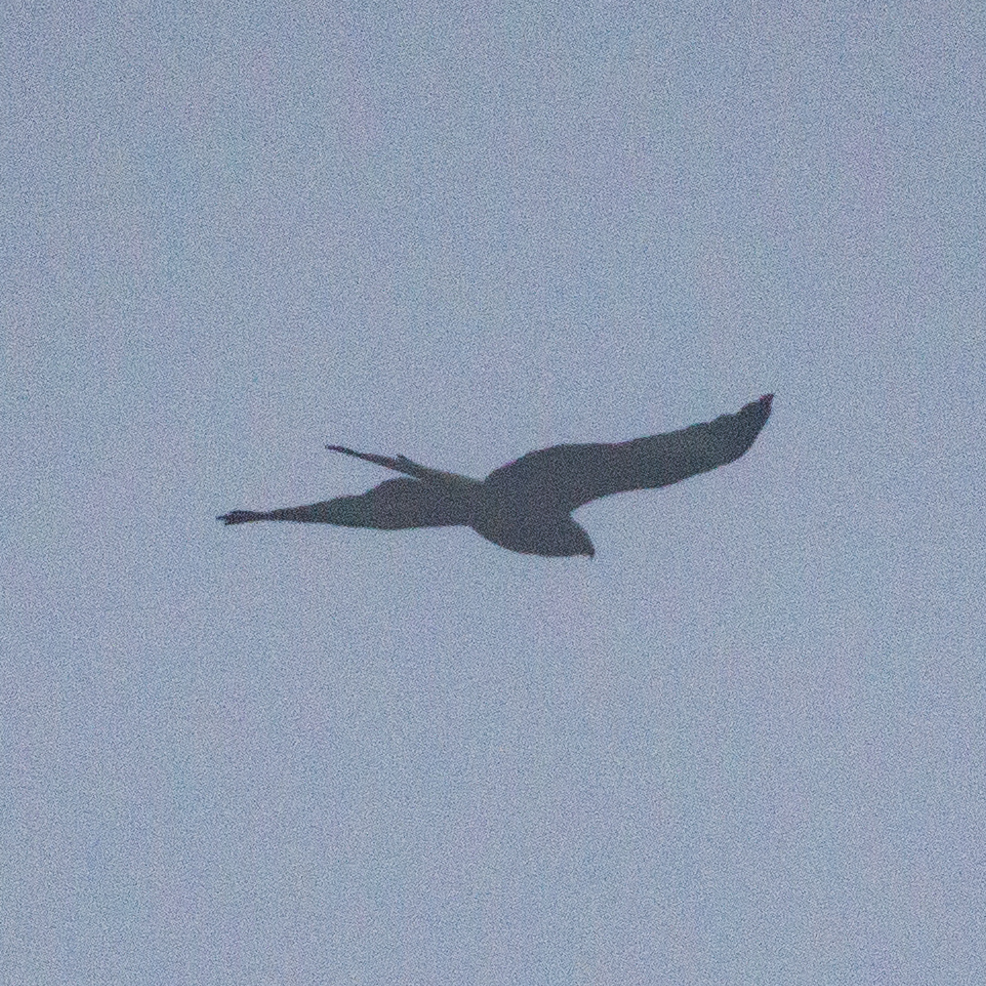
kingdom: Animalia
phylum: Chordata
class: Aves
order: Accipitriformes
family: Accipitridae
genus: Milvus
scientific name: Milvus milvus
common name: Red kite
